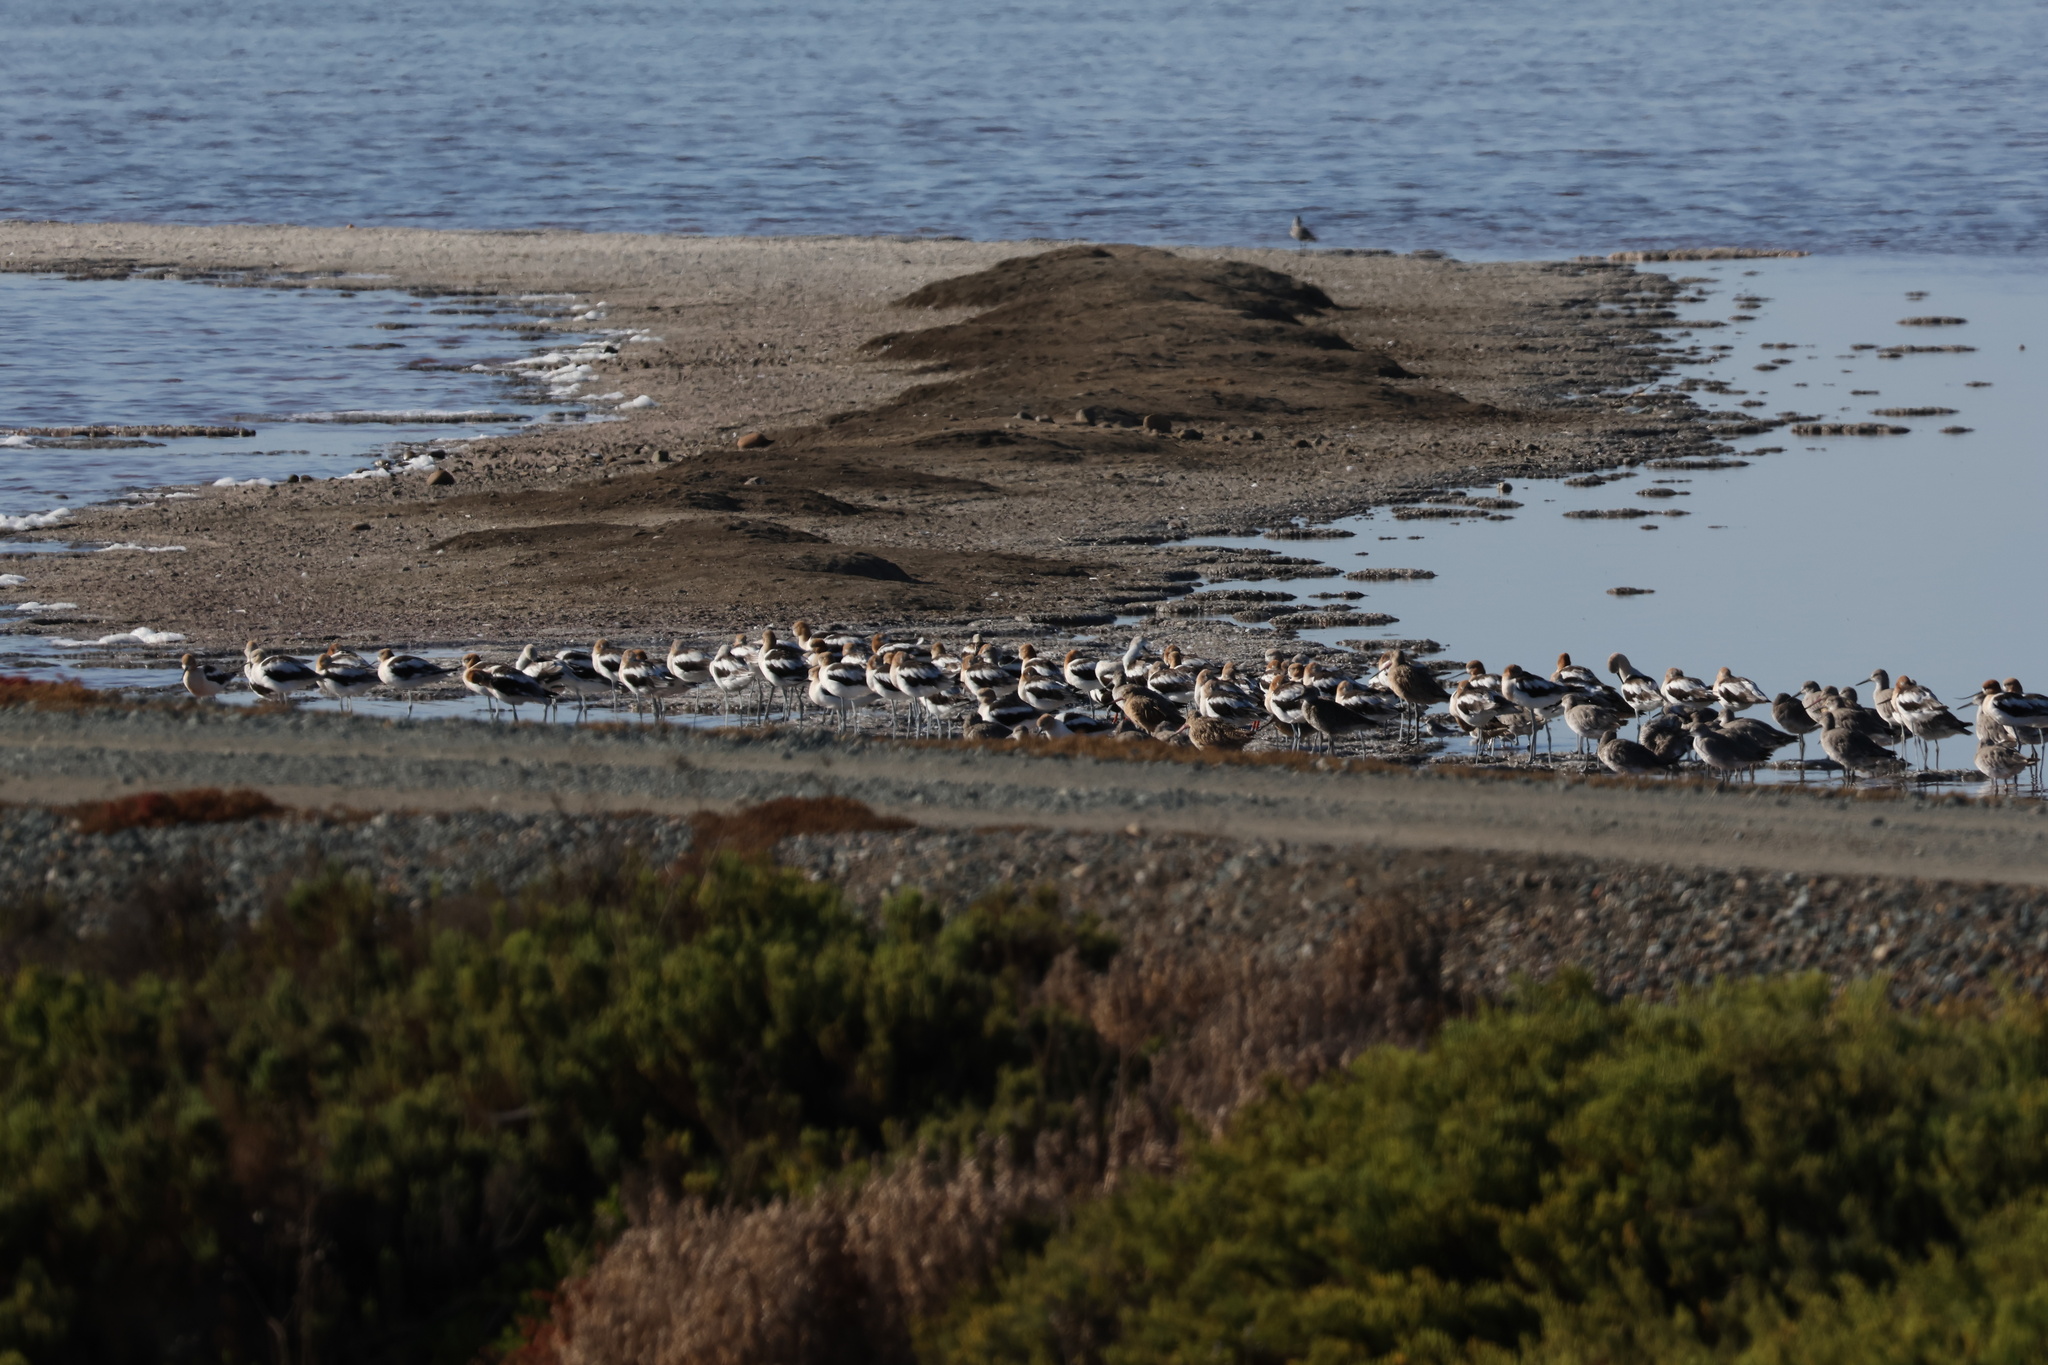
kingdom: Animalia
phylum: Chordata
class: Aves
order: Charadriiformes
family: Recurvirostridae
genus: Recurvirostra
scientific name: Recurvirostra americana
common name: American avocet
